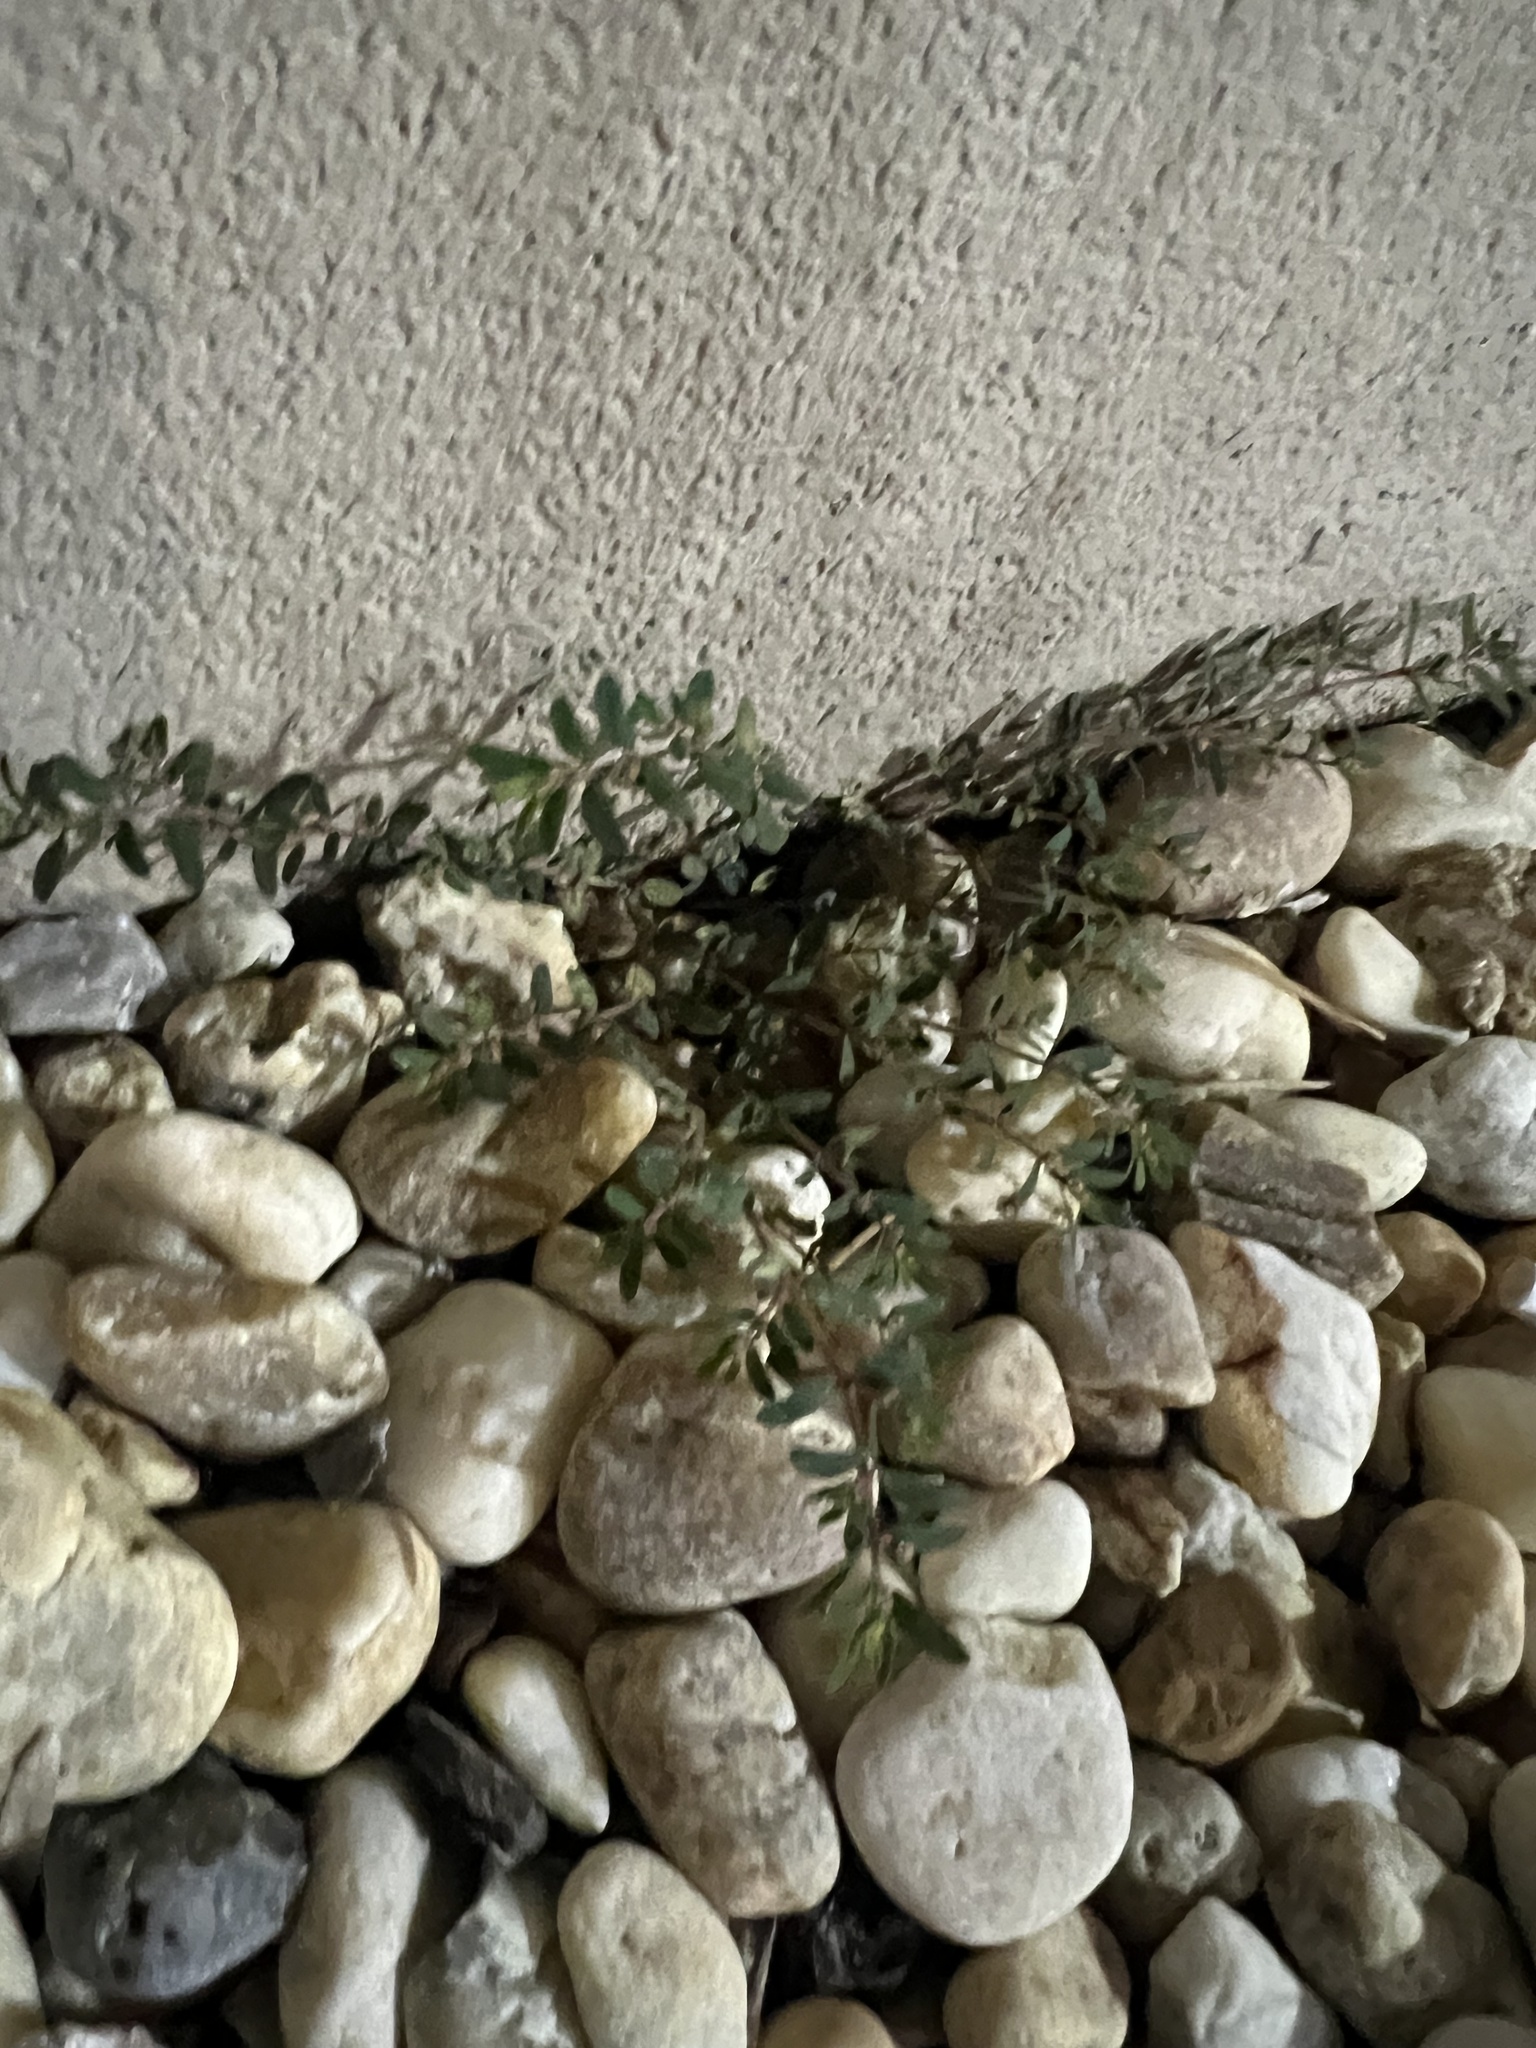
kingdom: Plantae
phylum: Tracheophyta
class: Magnoliopsida
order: Malpighiales
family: Euphorbiaceae
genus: Euphorbia
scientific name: Euphorbia maculata
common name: Spotted spurge
